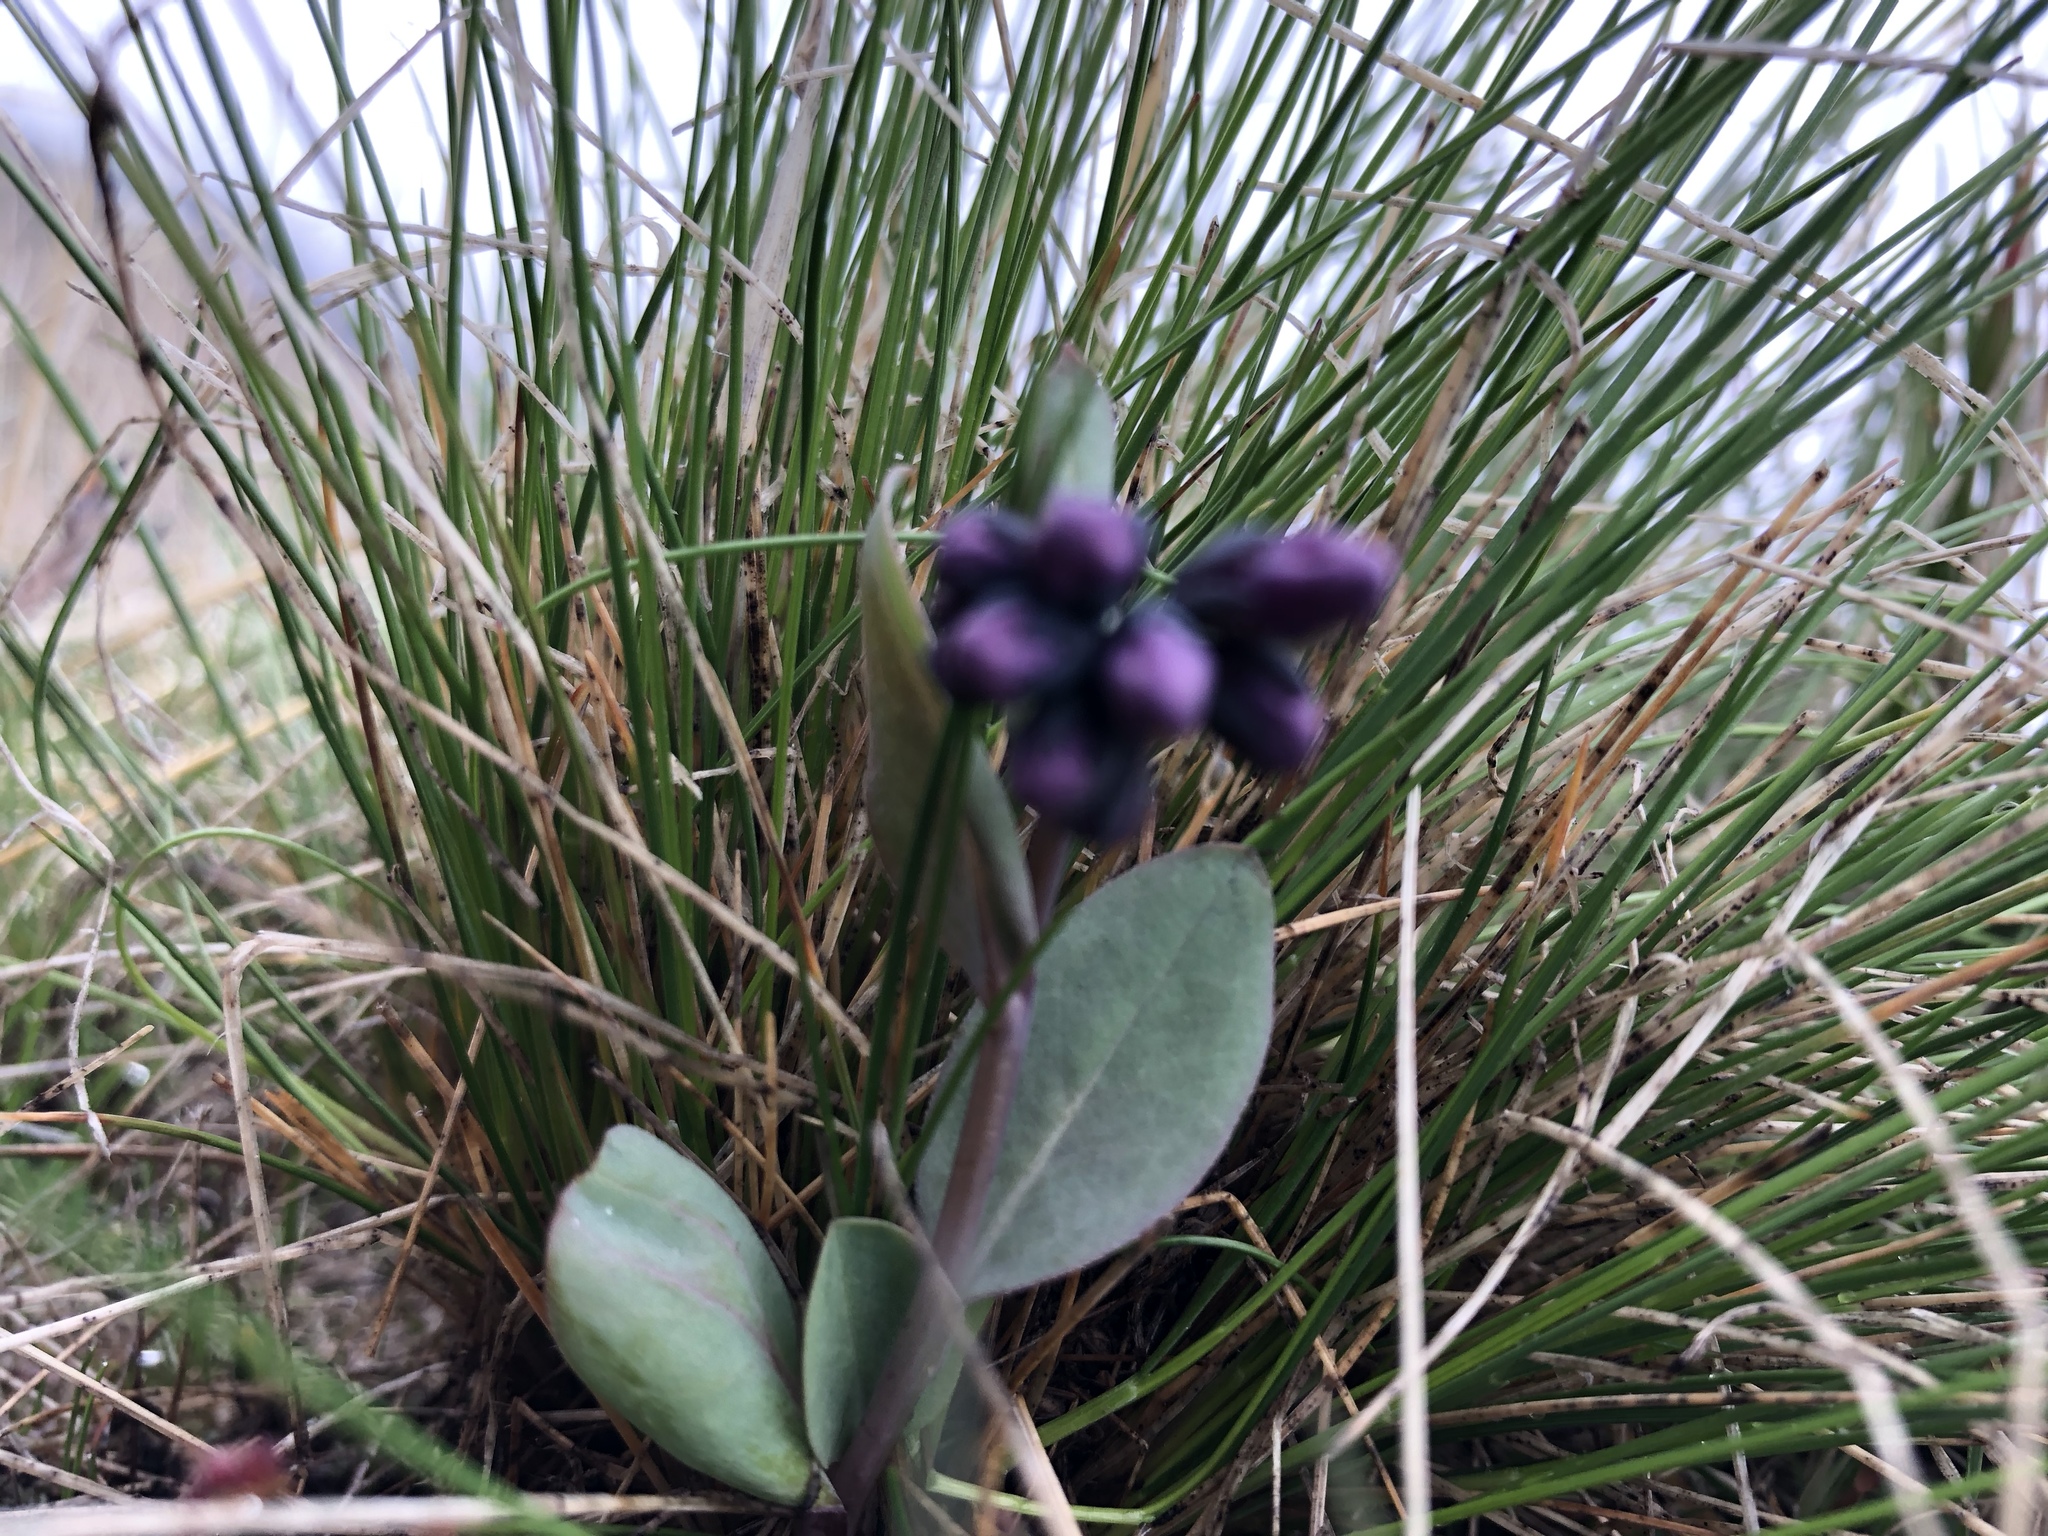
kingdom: Plantae
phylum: Tracheophyta
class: Magnoliopsida
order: Boraginales
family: Boraginaceae
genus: Mertensia
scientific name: Mertensia oblongifolia
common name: Sagebrush bluebells
